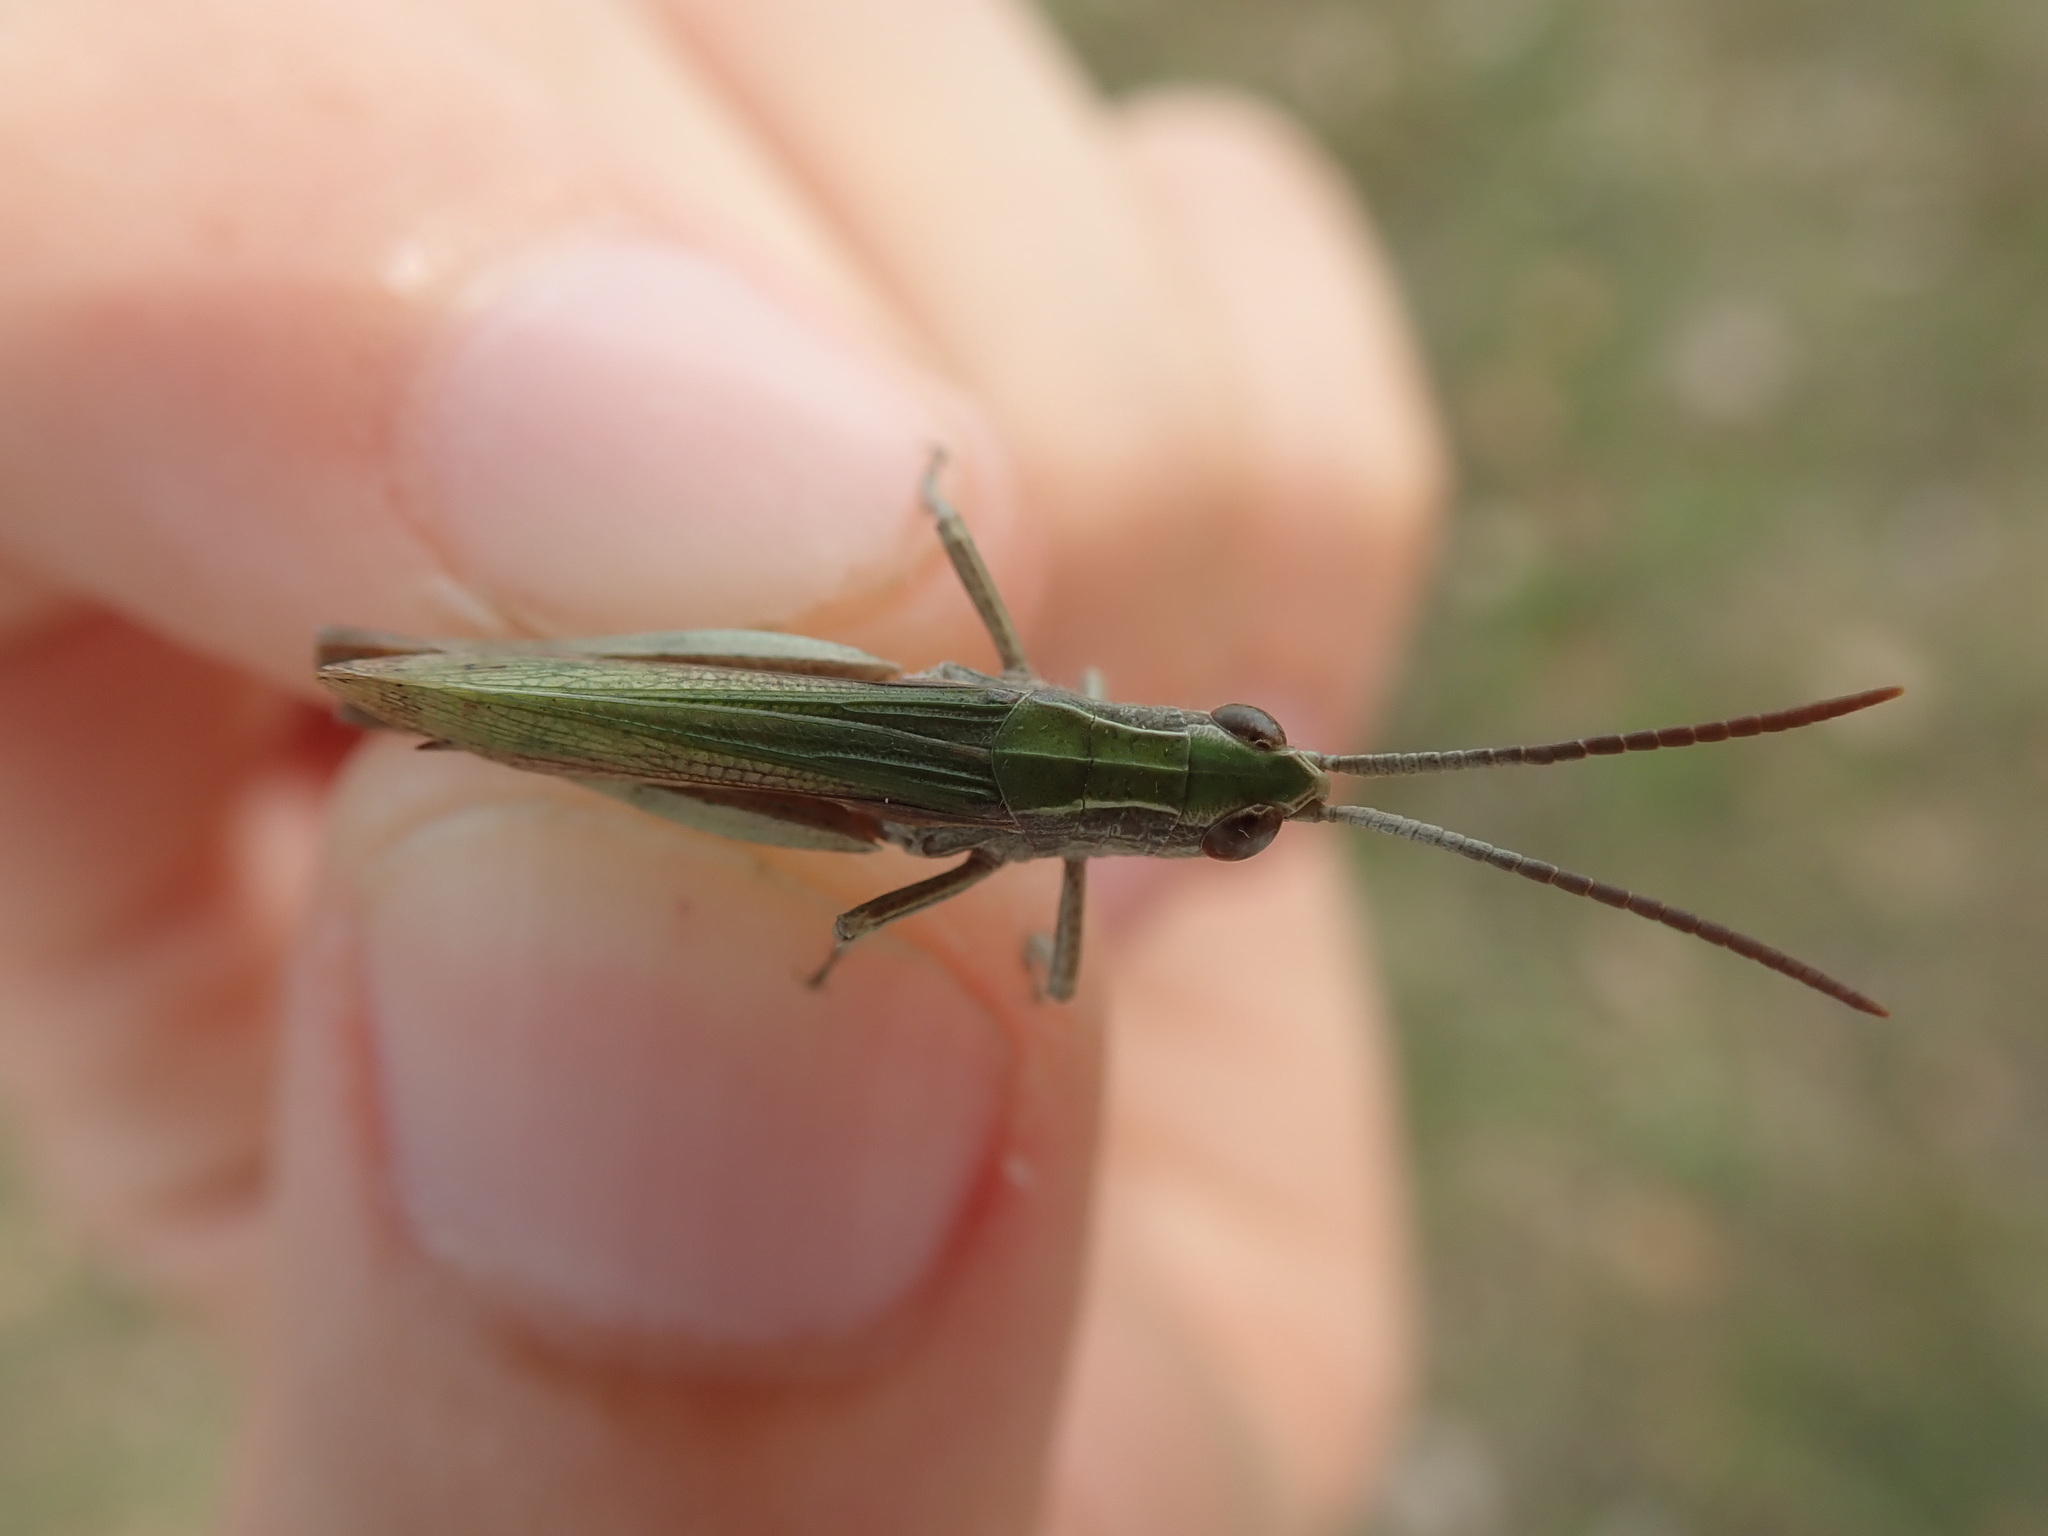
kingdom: Animalia
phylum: Arthropoda
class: Insecta
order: Orthoptera
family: Acrididae
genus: Chorthippus
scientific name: Chorthippus dorsatus
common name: Steppe grasshopper
